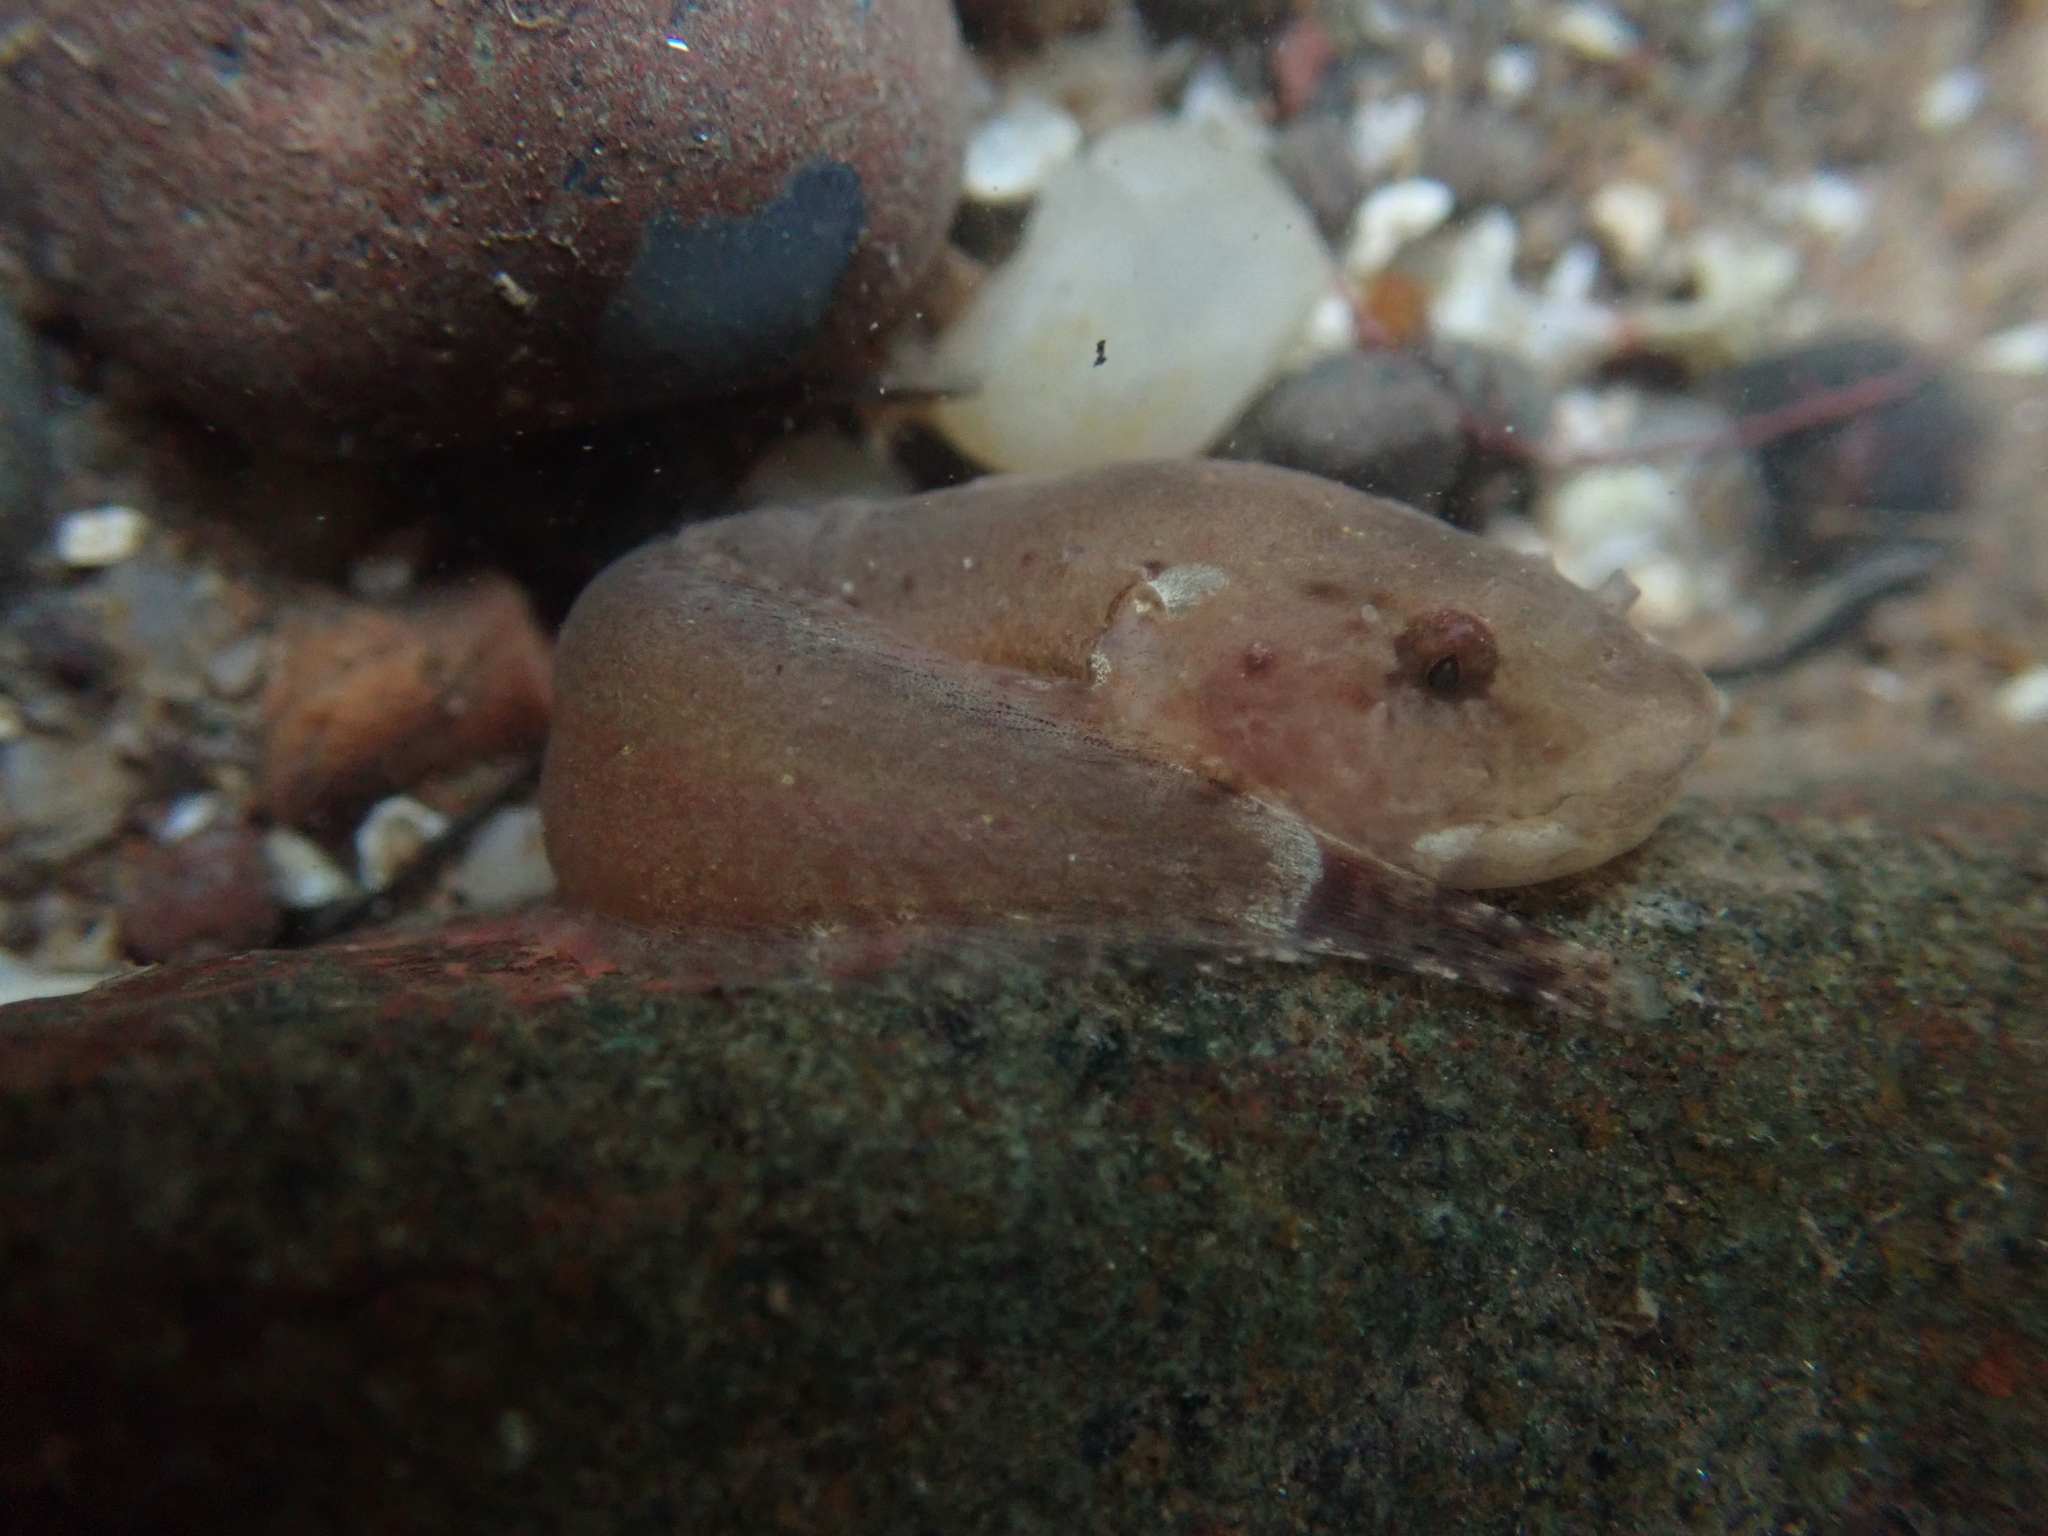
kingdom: Animalia
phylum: Chordata
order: Scorpaeniformes
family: Liparidae
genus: Liparis
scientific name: Liparis atlanticus
